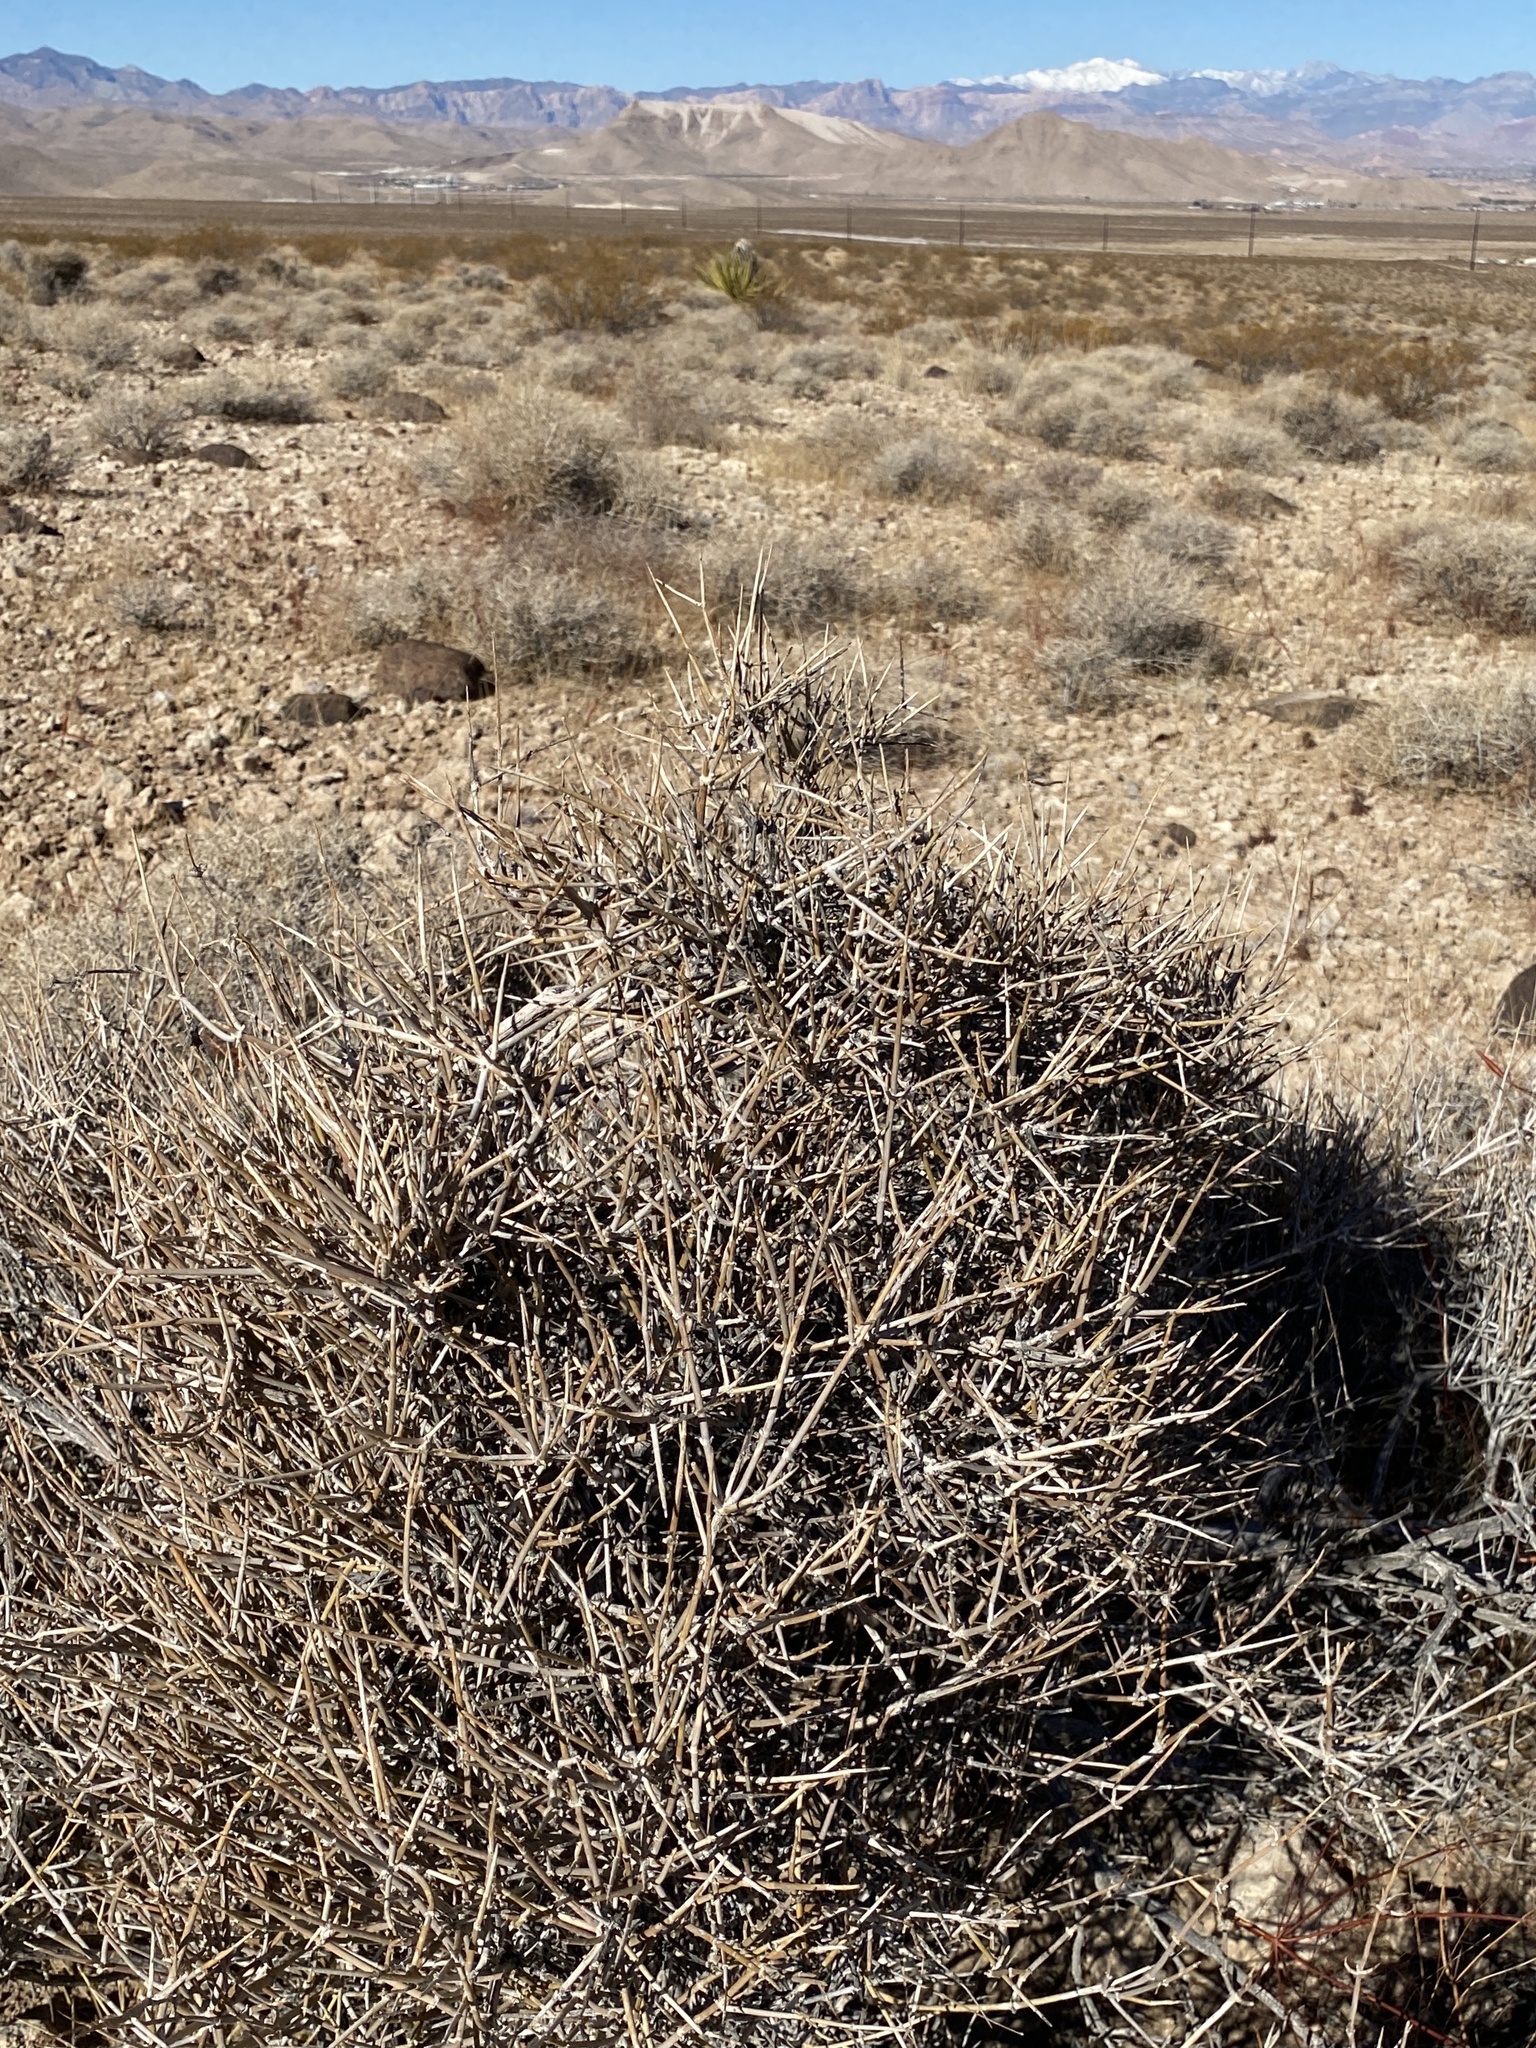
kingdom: Plantae
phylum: Tracheophyta
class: Gnetopsida
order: Ephedrales
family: Ephedraceae
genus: Ephedra
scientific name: Ephedra nevadensis
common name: Gray ephedra
